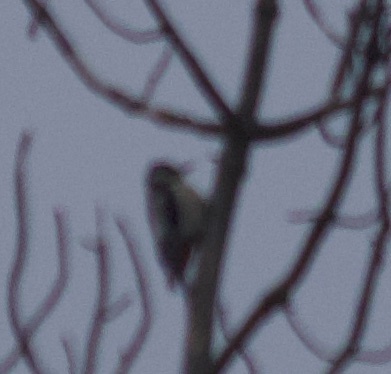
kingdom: Animalia
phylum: Chordata
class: Aves
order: Piciformes
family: Picidae
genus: Dendrocopos
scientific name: Dendrocopos major
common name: Great spotted woodpecker
